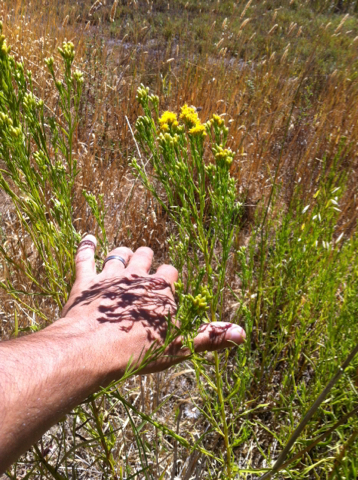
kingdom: Plantae
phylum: Tracheophyta
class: Magnoliopsida
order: Asterales
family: Asteraceae
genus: Euthamia
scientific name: Euthamia occidentalis
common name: Western goldentop
